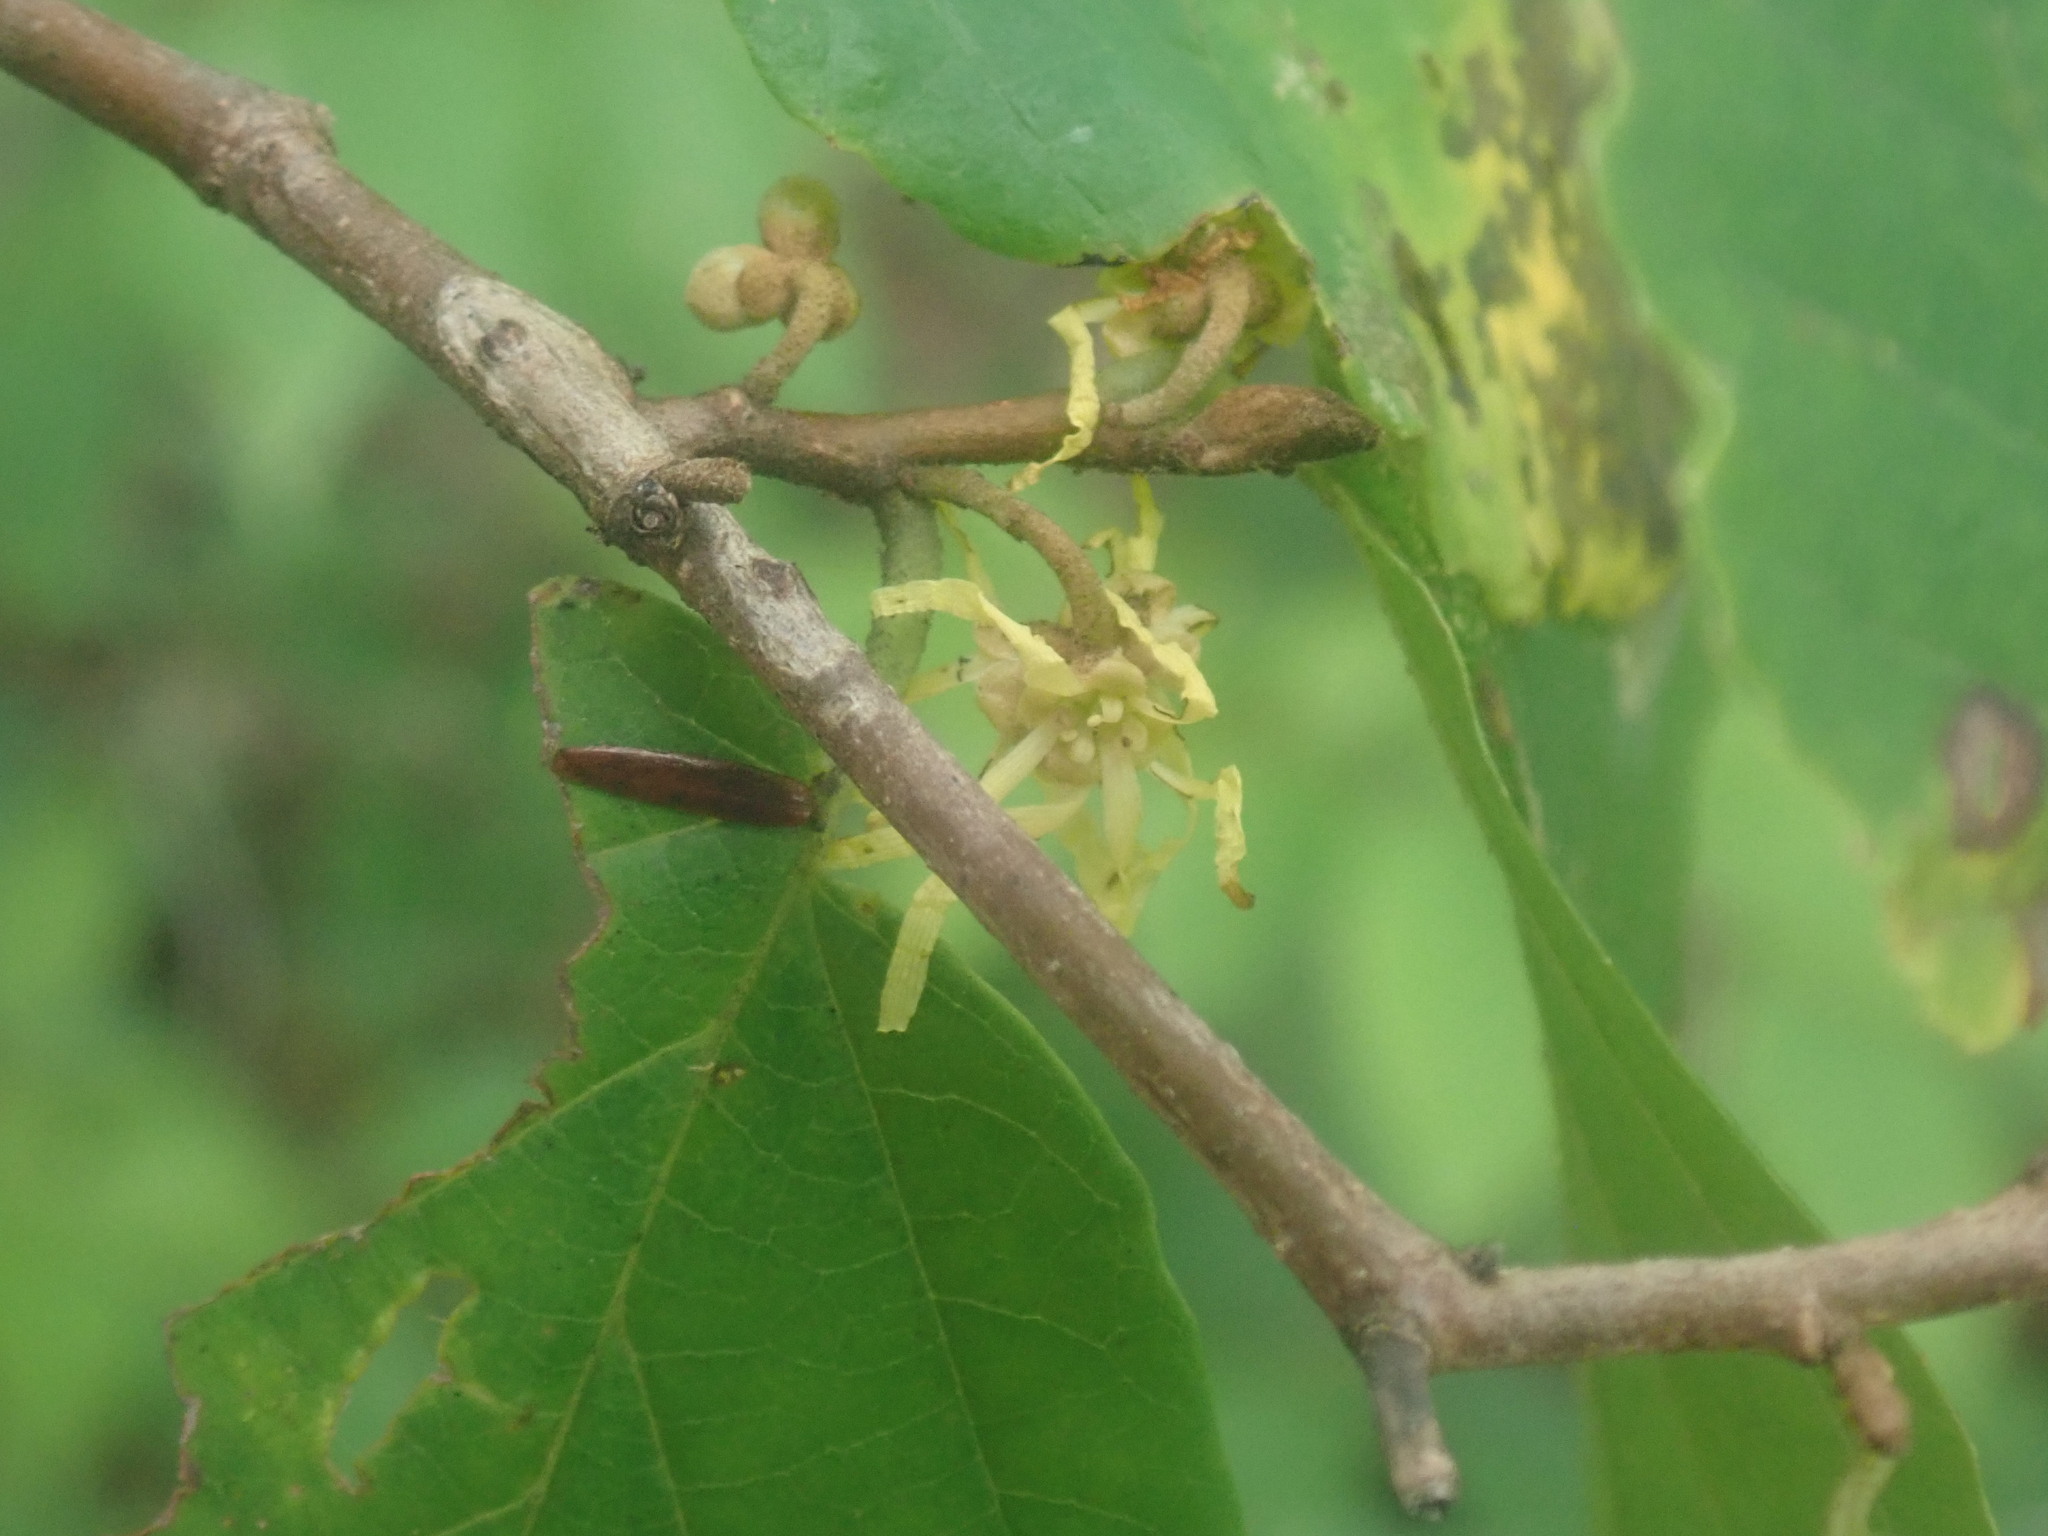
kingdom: Plantae
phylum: Tracheophyta
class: Magnoliopsida
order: Saxifragales
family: Hamamelidaceae
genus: Hamamelis
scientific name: Hamamelis virginiana
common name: Witch-hazel
